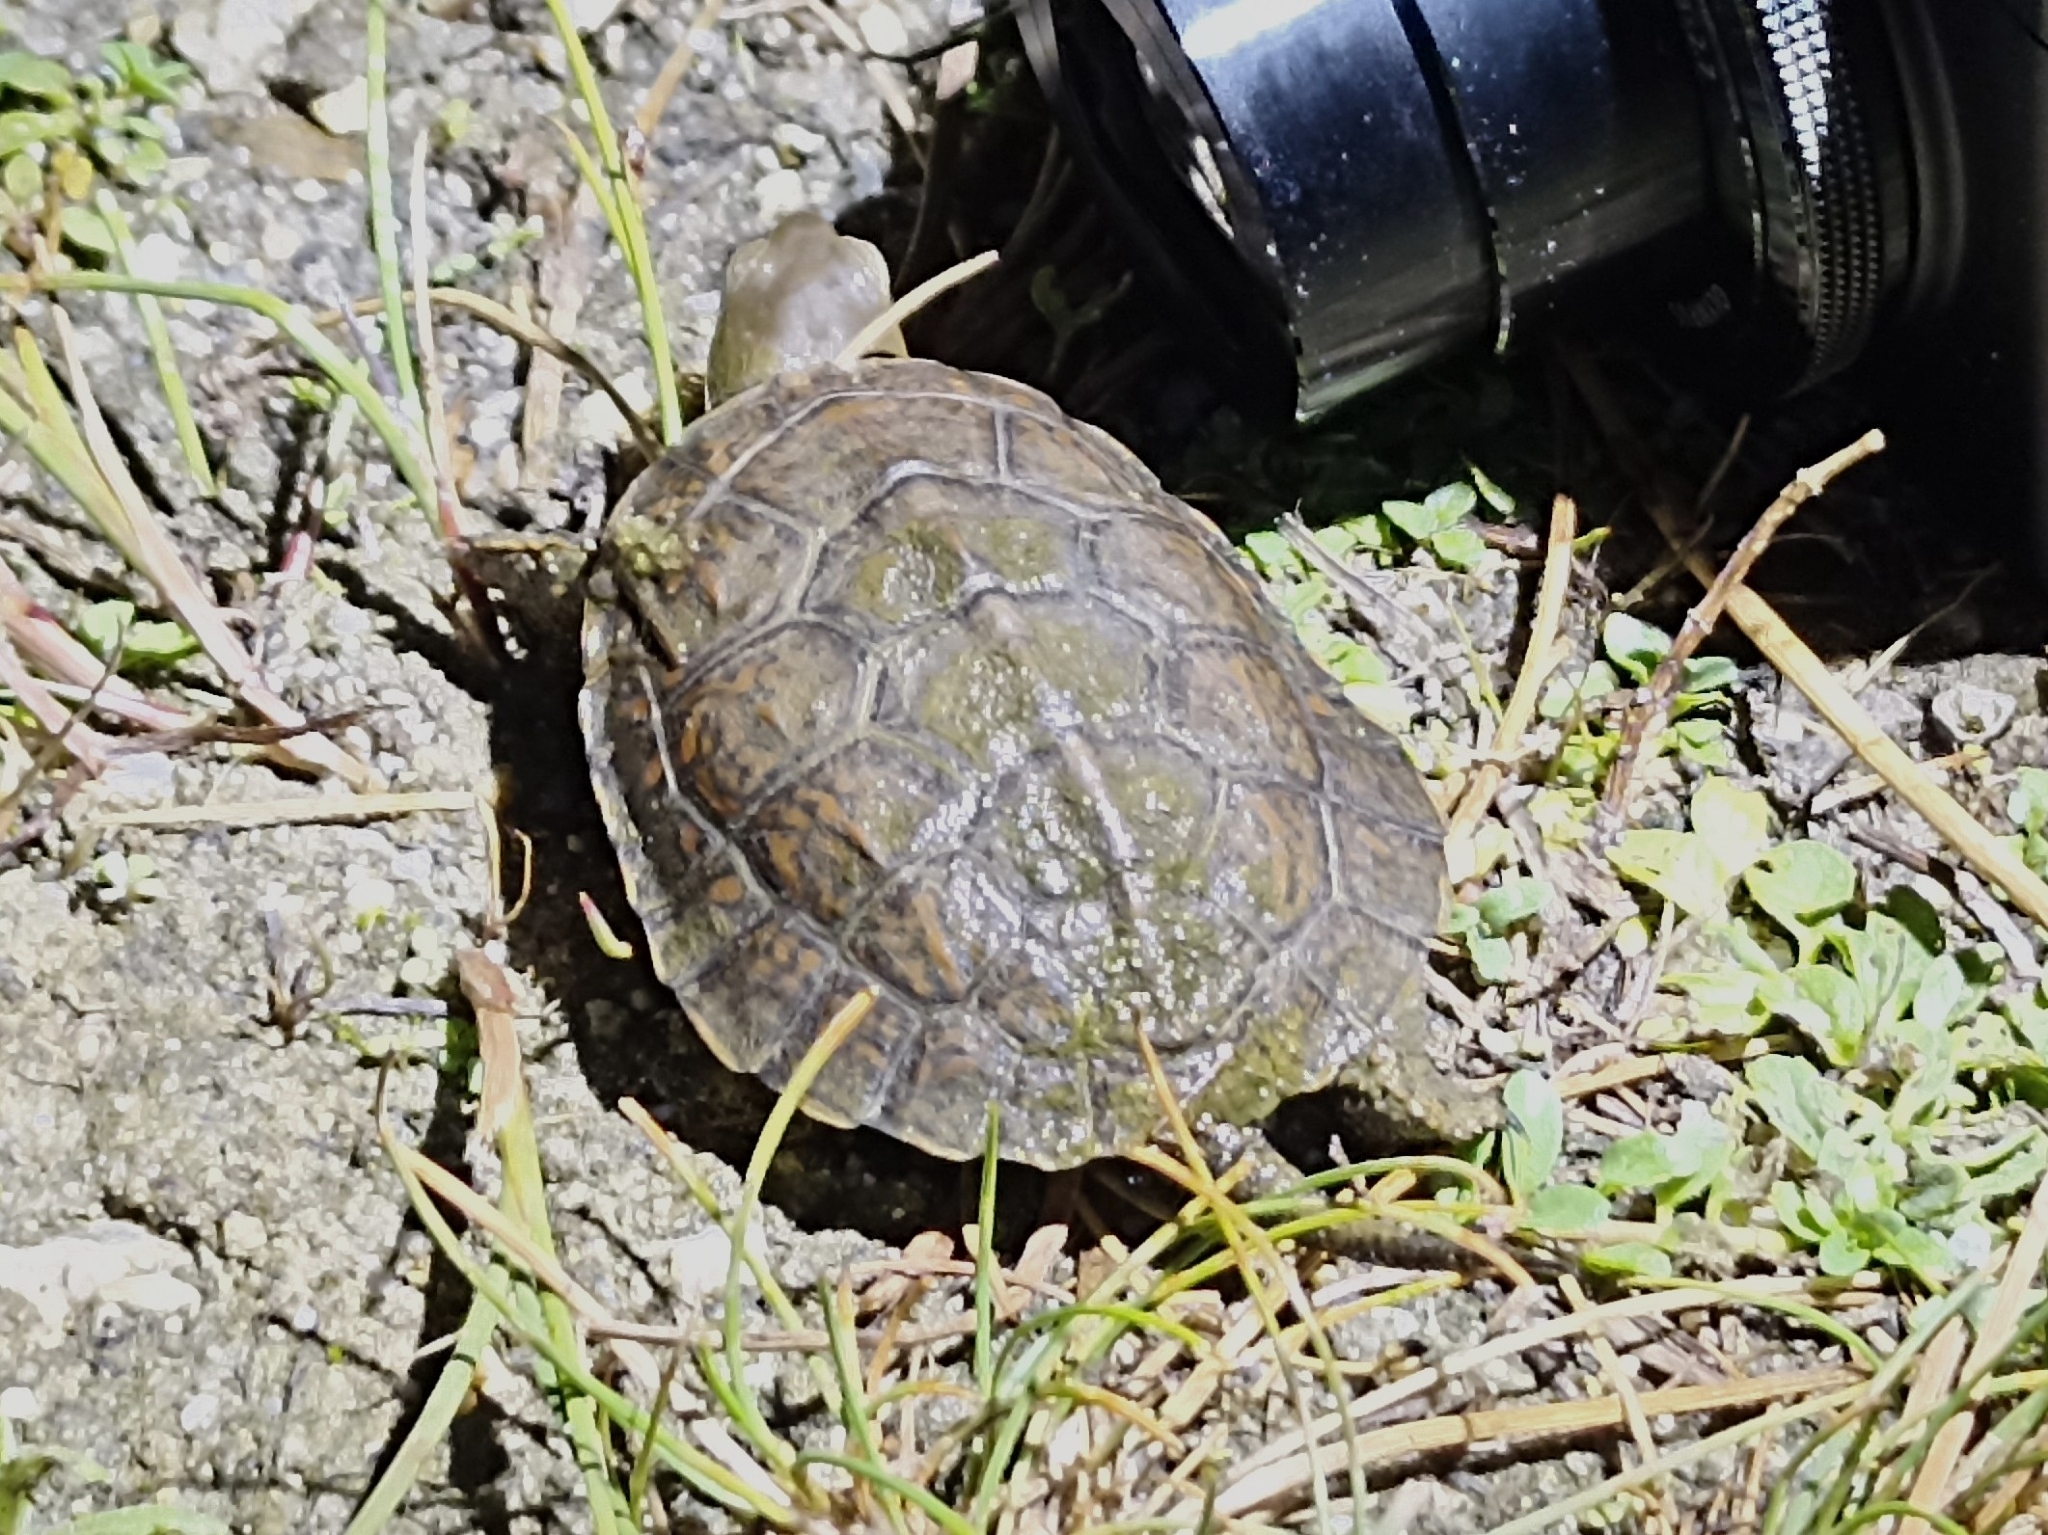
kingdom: Animalia
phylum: Chordata
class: Testudines
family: Geoemydidae
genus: Mauremys
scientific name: Mauremys leprosa
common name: Mediterranean pond turtle
